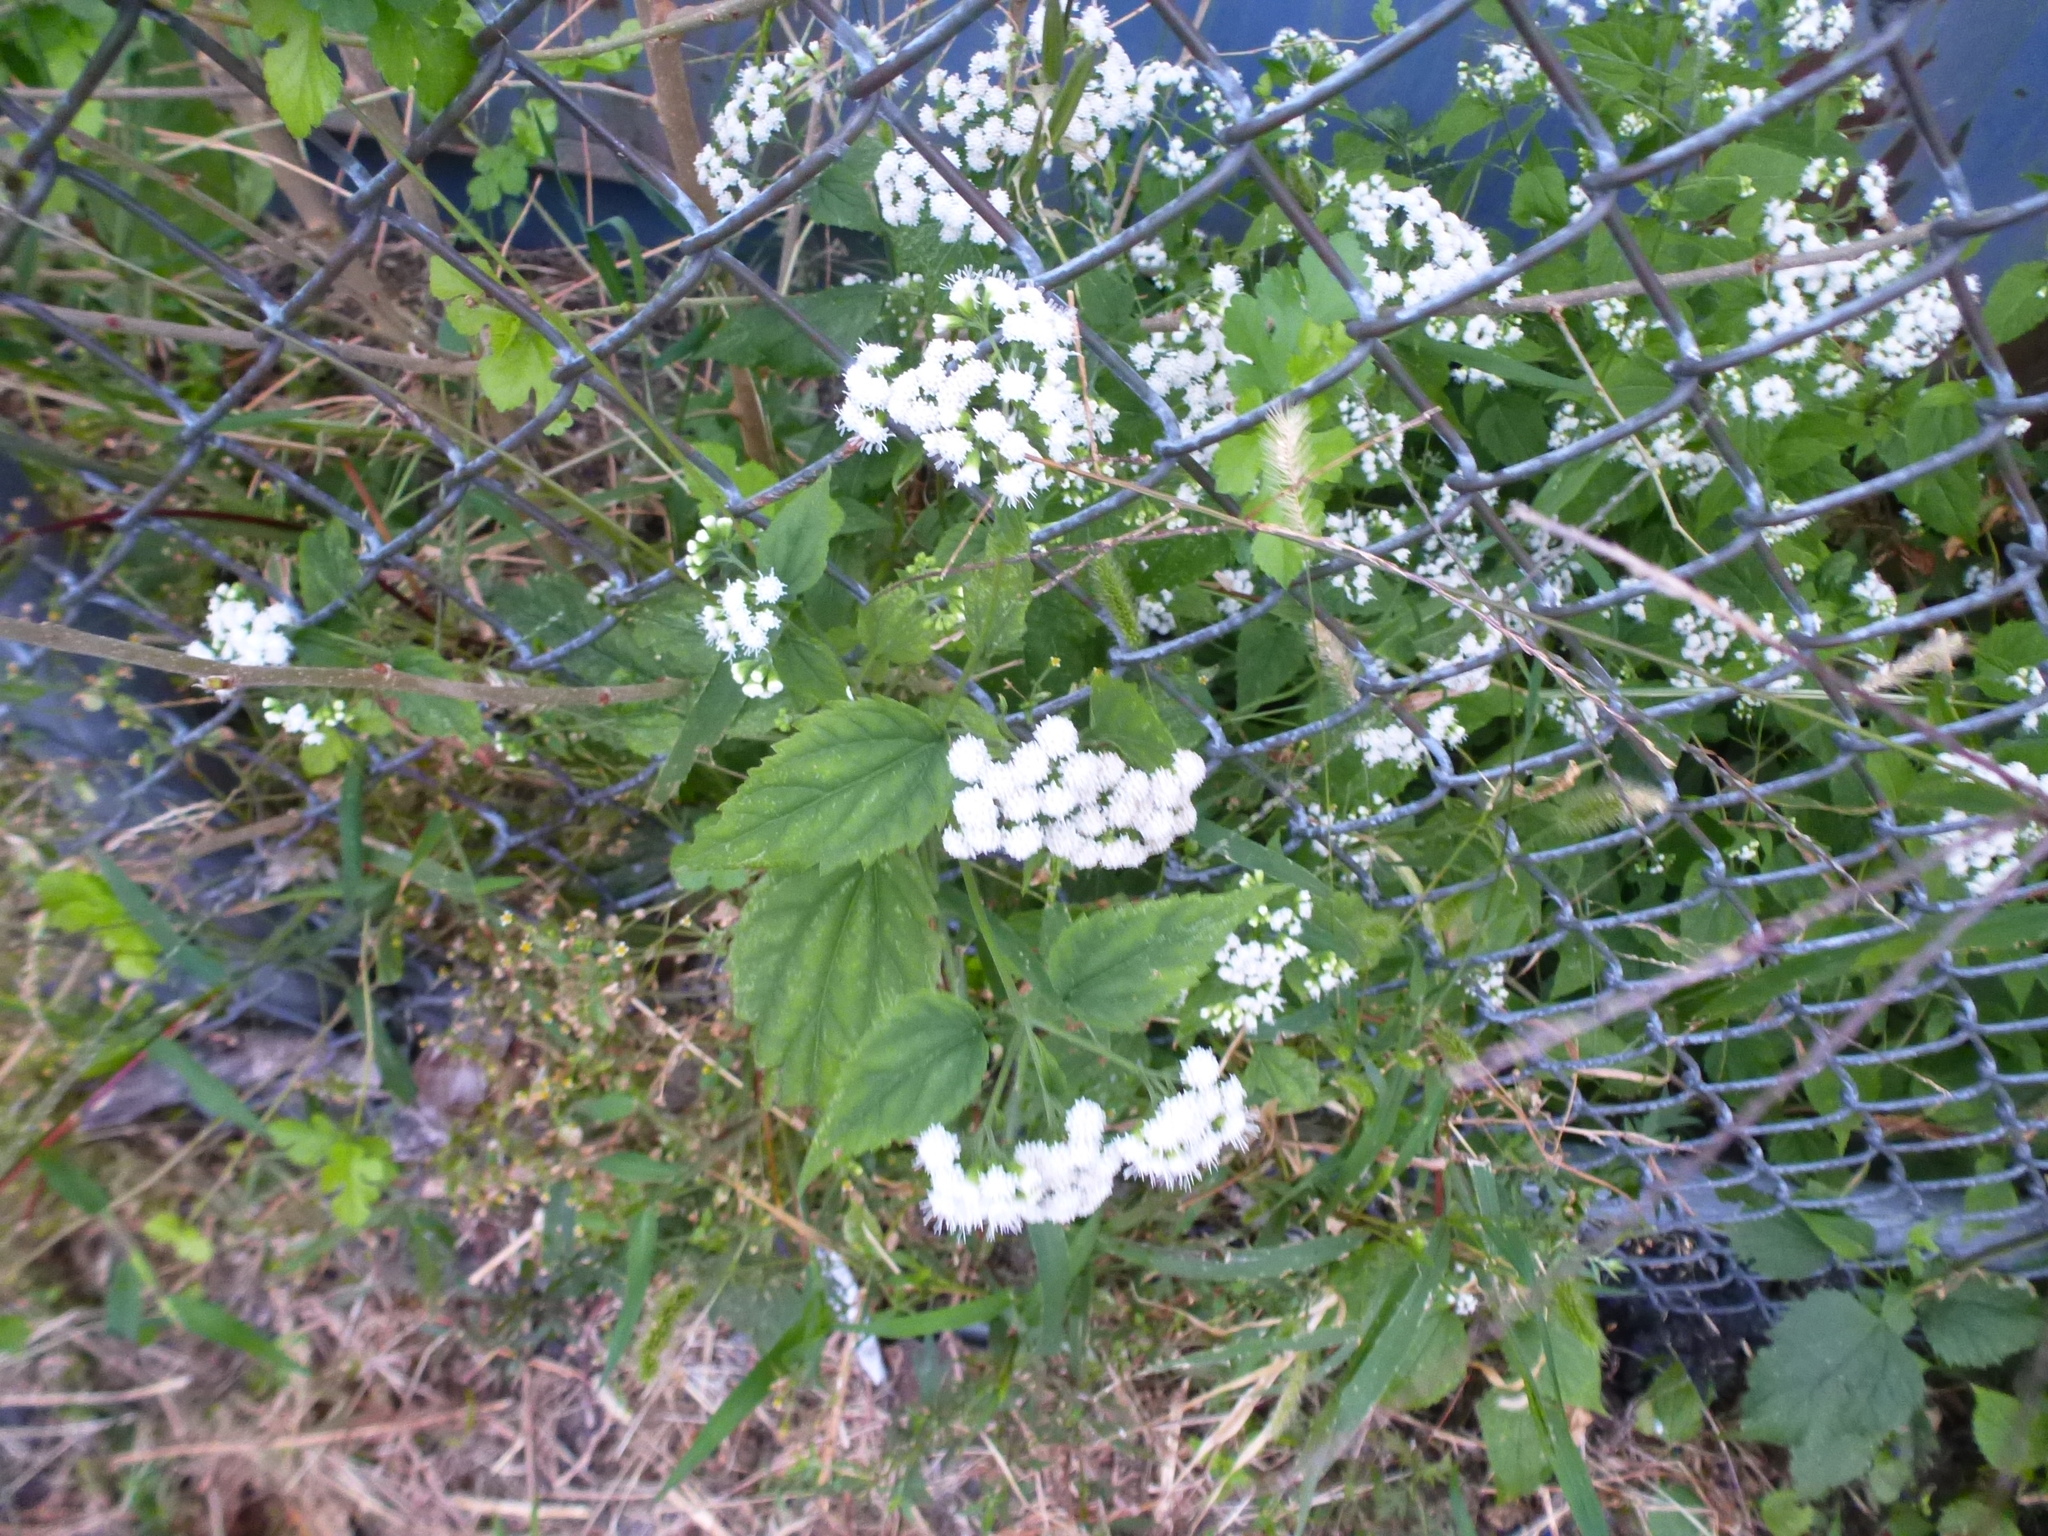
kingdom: Plantae
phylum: Tracheophyta
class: Magnoliopsida
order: Asterales
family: Asteraceae
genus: Ageratina
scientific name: Ageratina altissima
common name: White snakeroot
